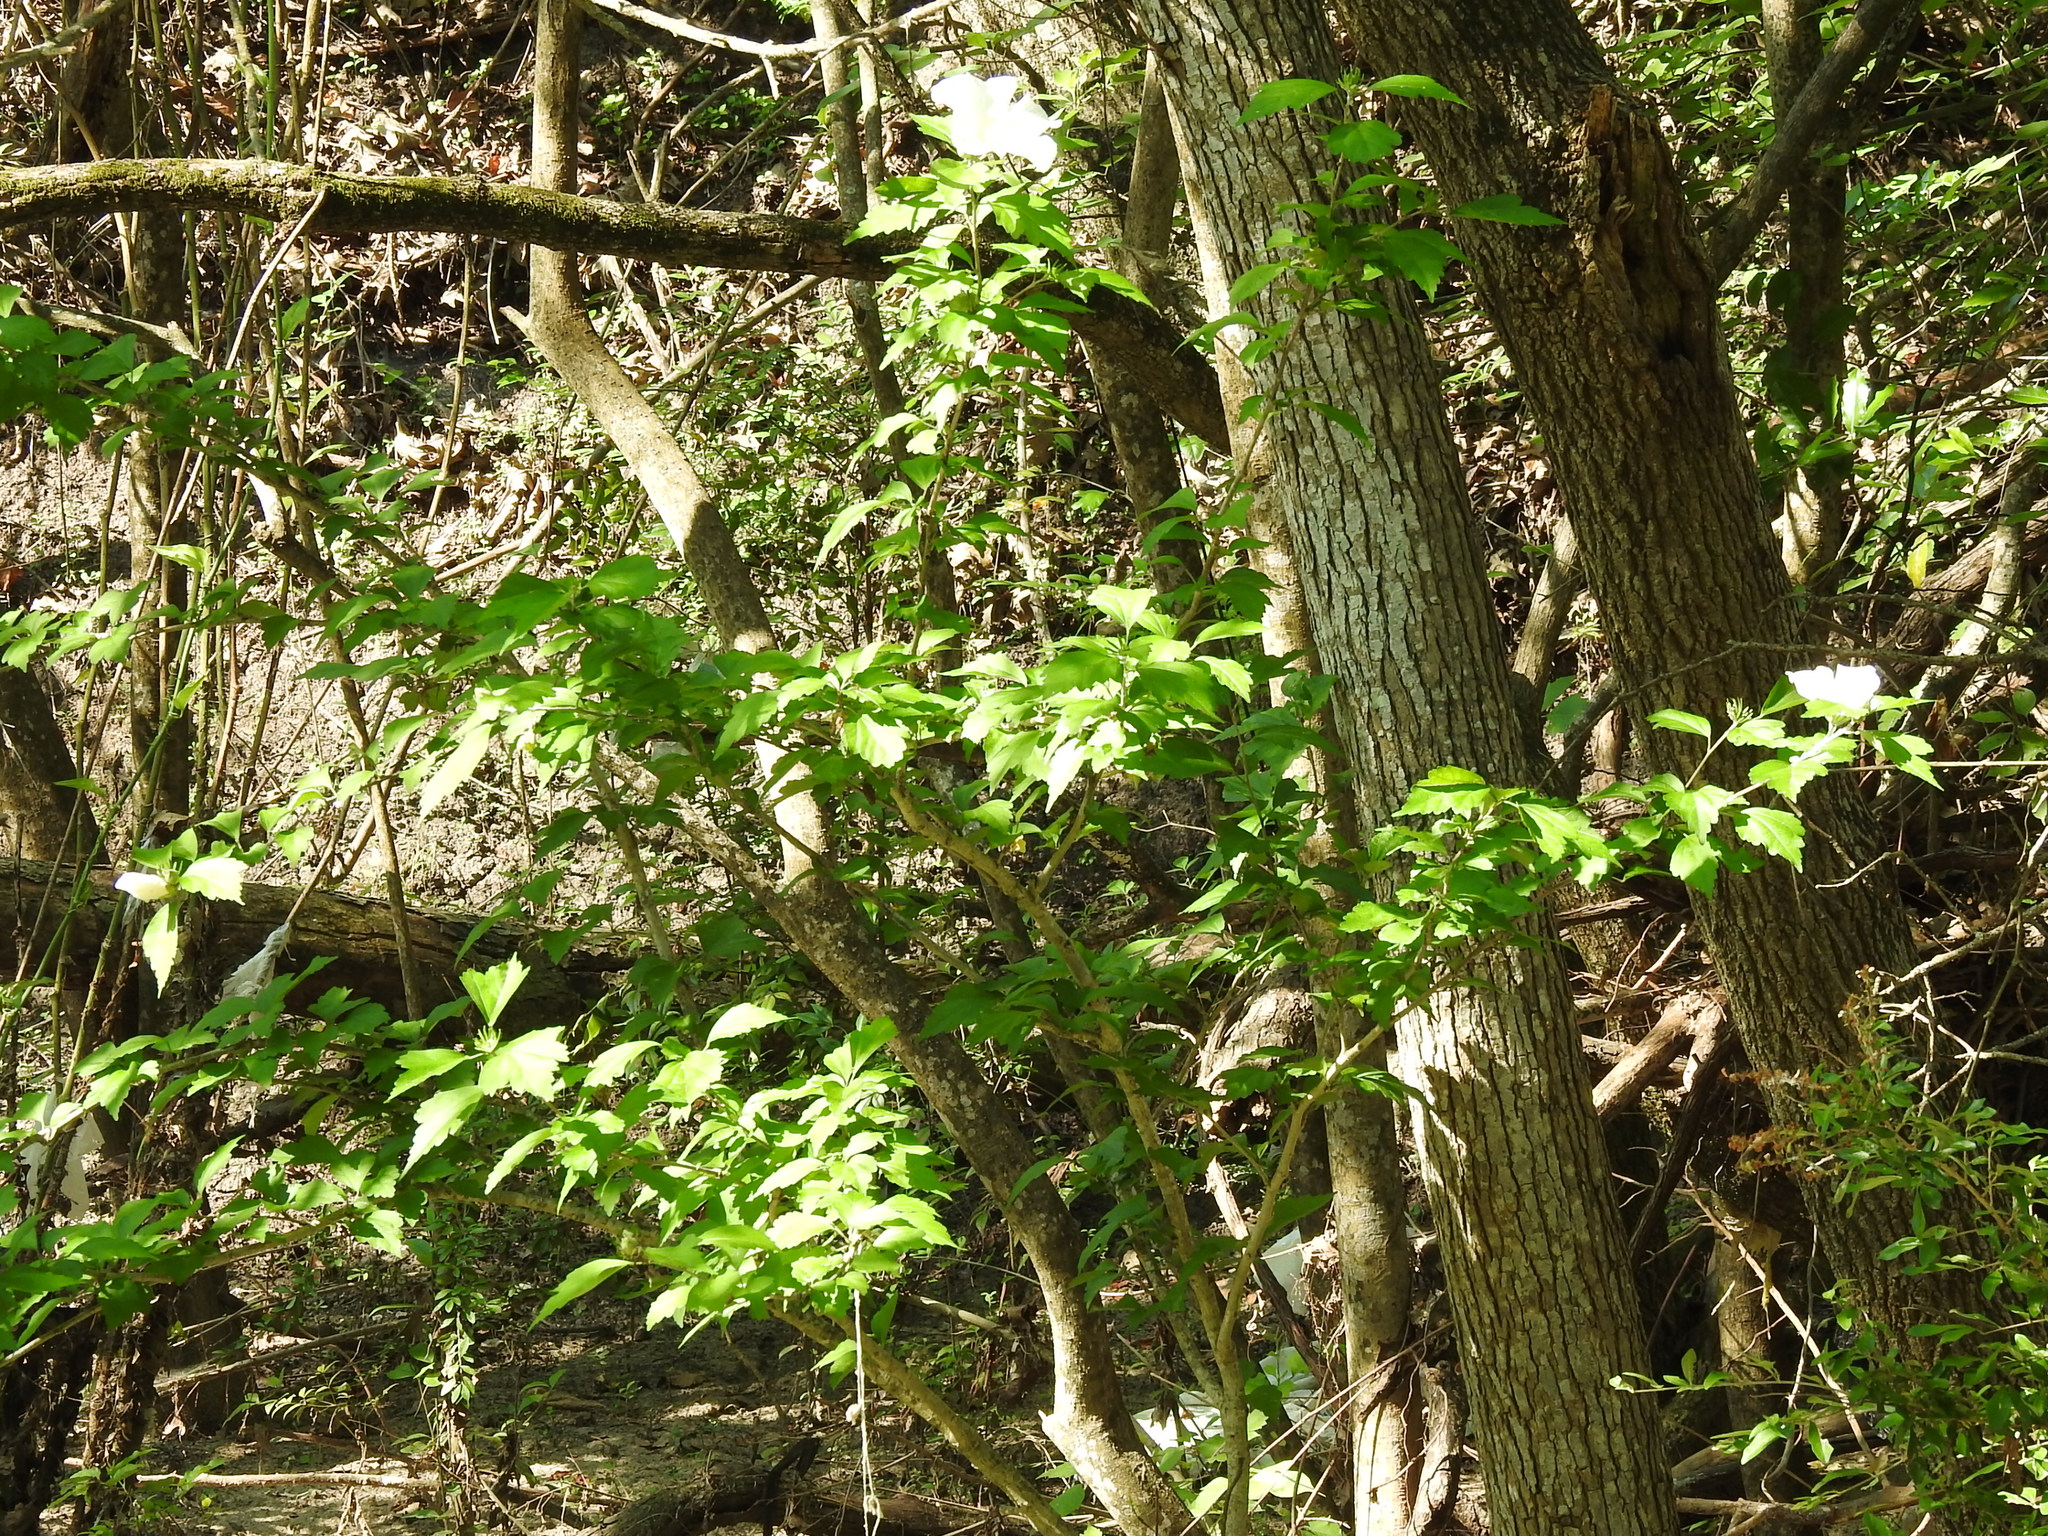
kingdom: Plantae
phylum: Tracheophyta
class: Magnoliopsida
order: Malvales
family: Malvaceae
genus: Hibiscus
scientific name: Hibiscus syriacus
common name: Syrian ketmia
